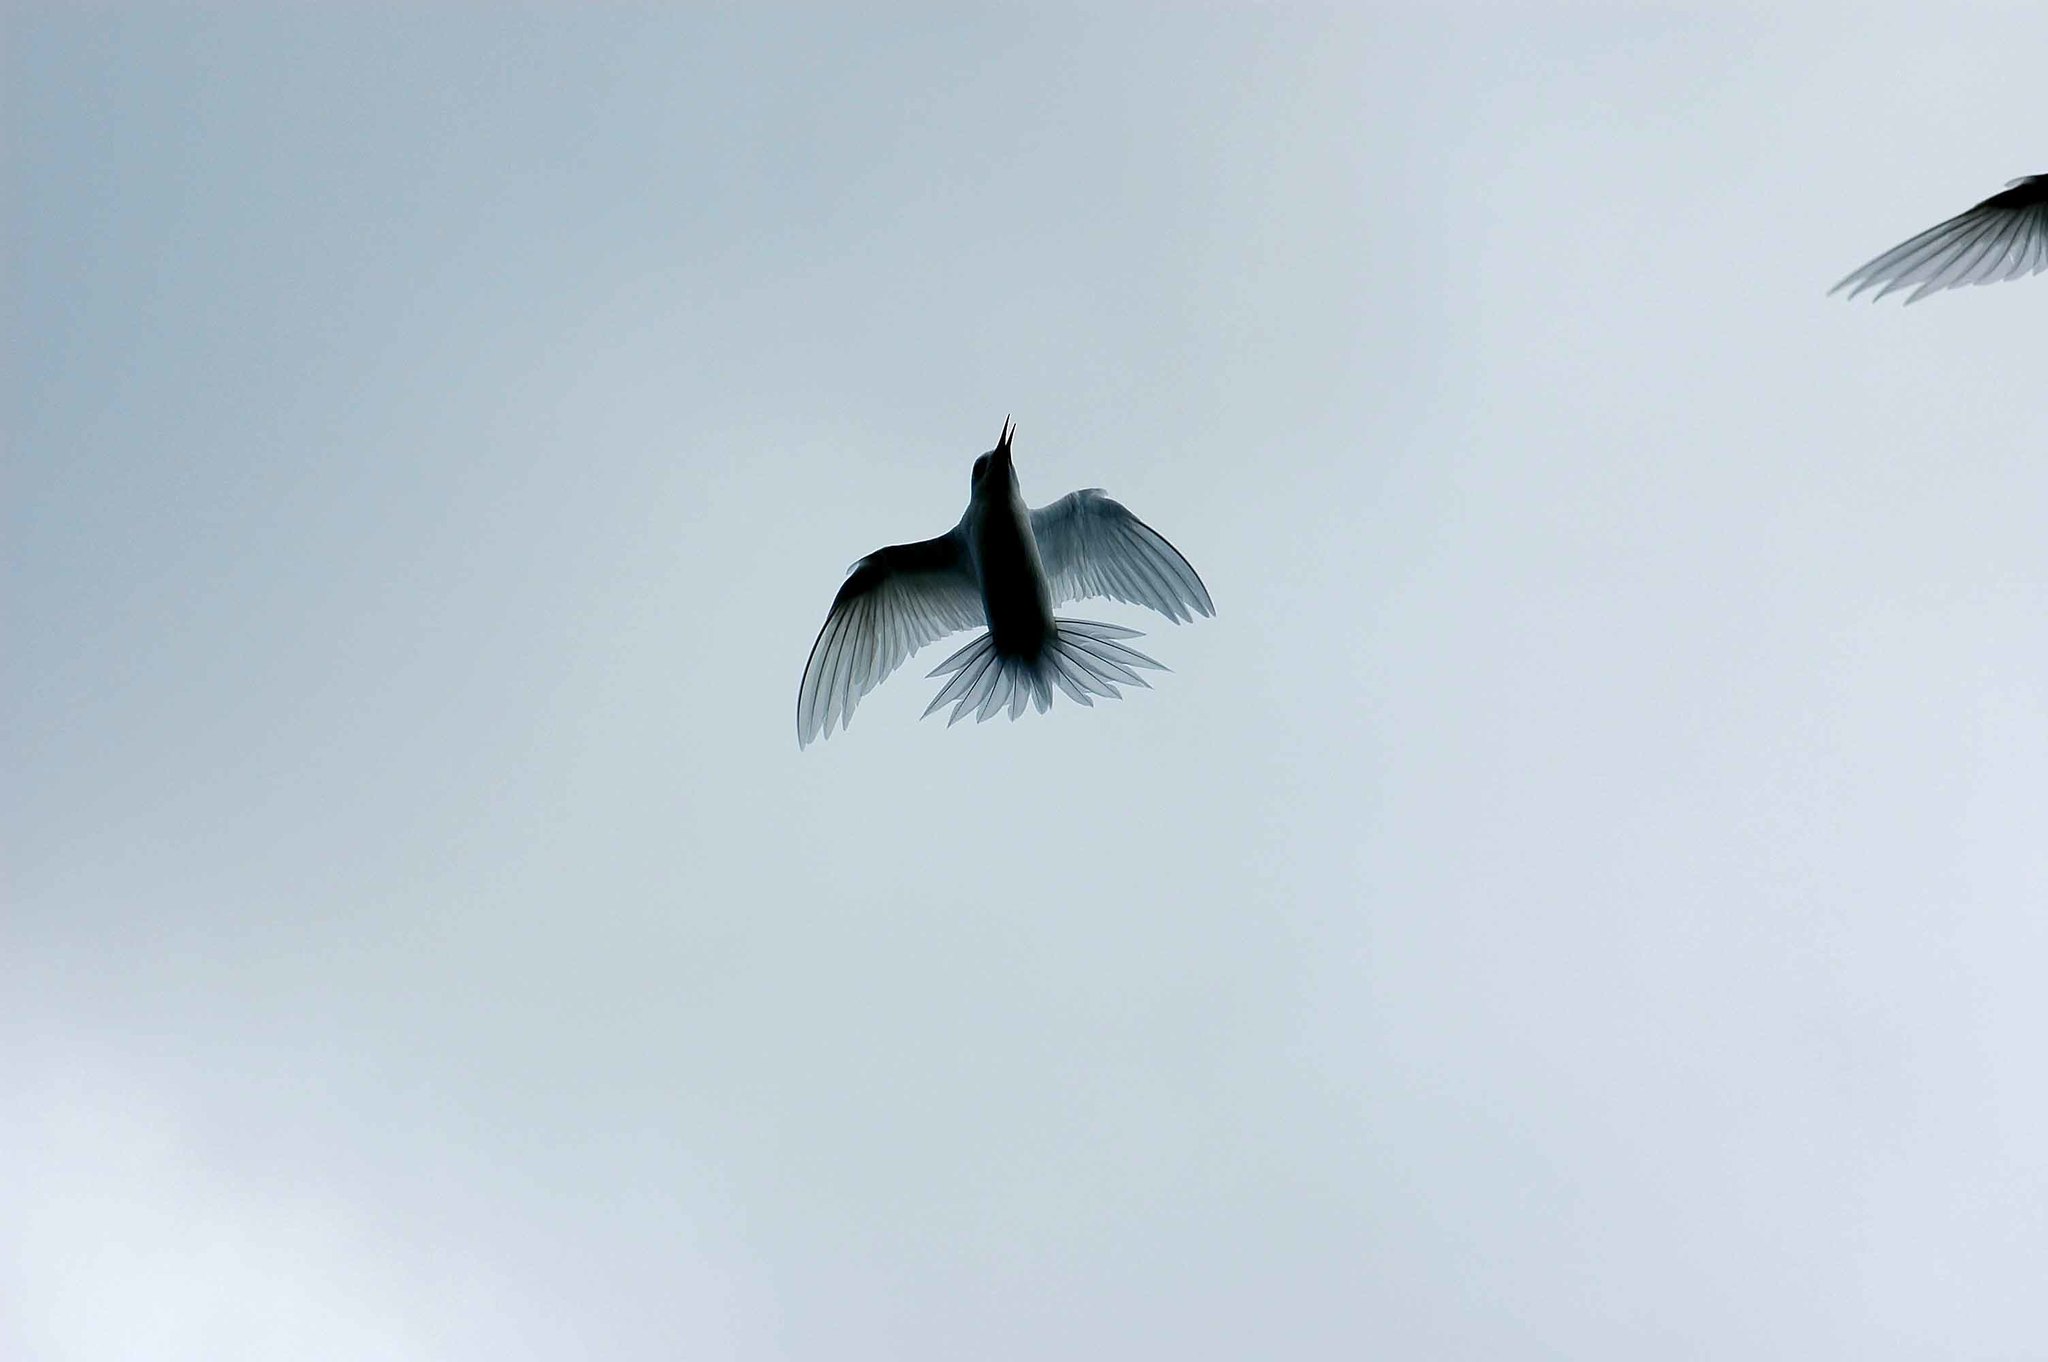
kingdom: Animalia
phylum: Chordata
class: Aves
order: Charadriiformes
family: Laridae
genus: Gygis
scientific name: Gygis alba
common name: White tern
